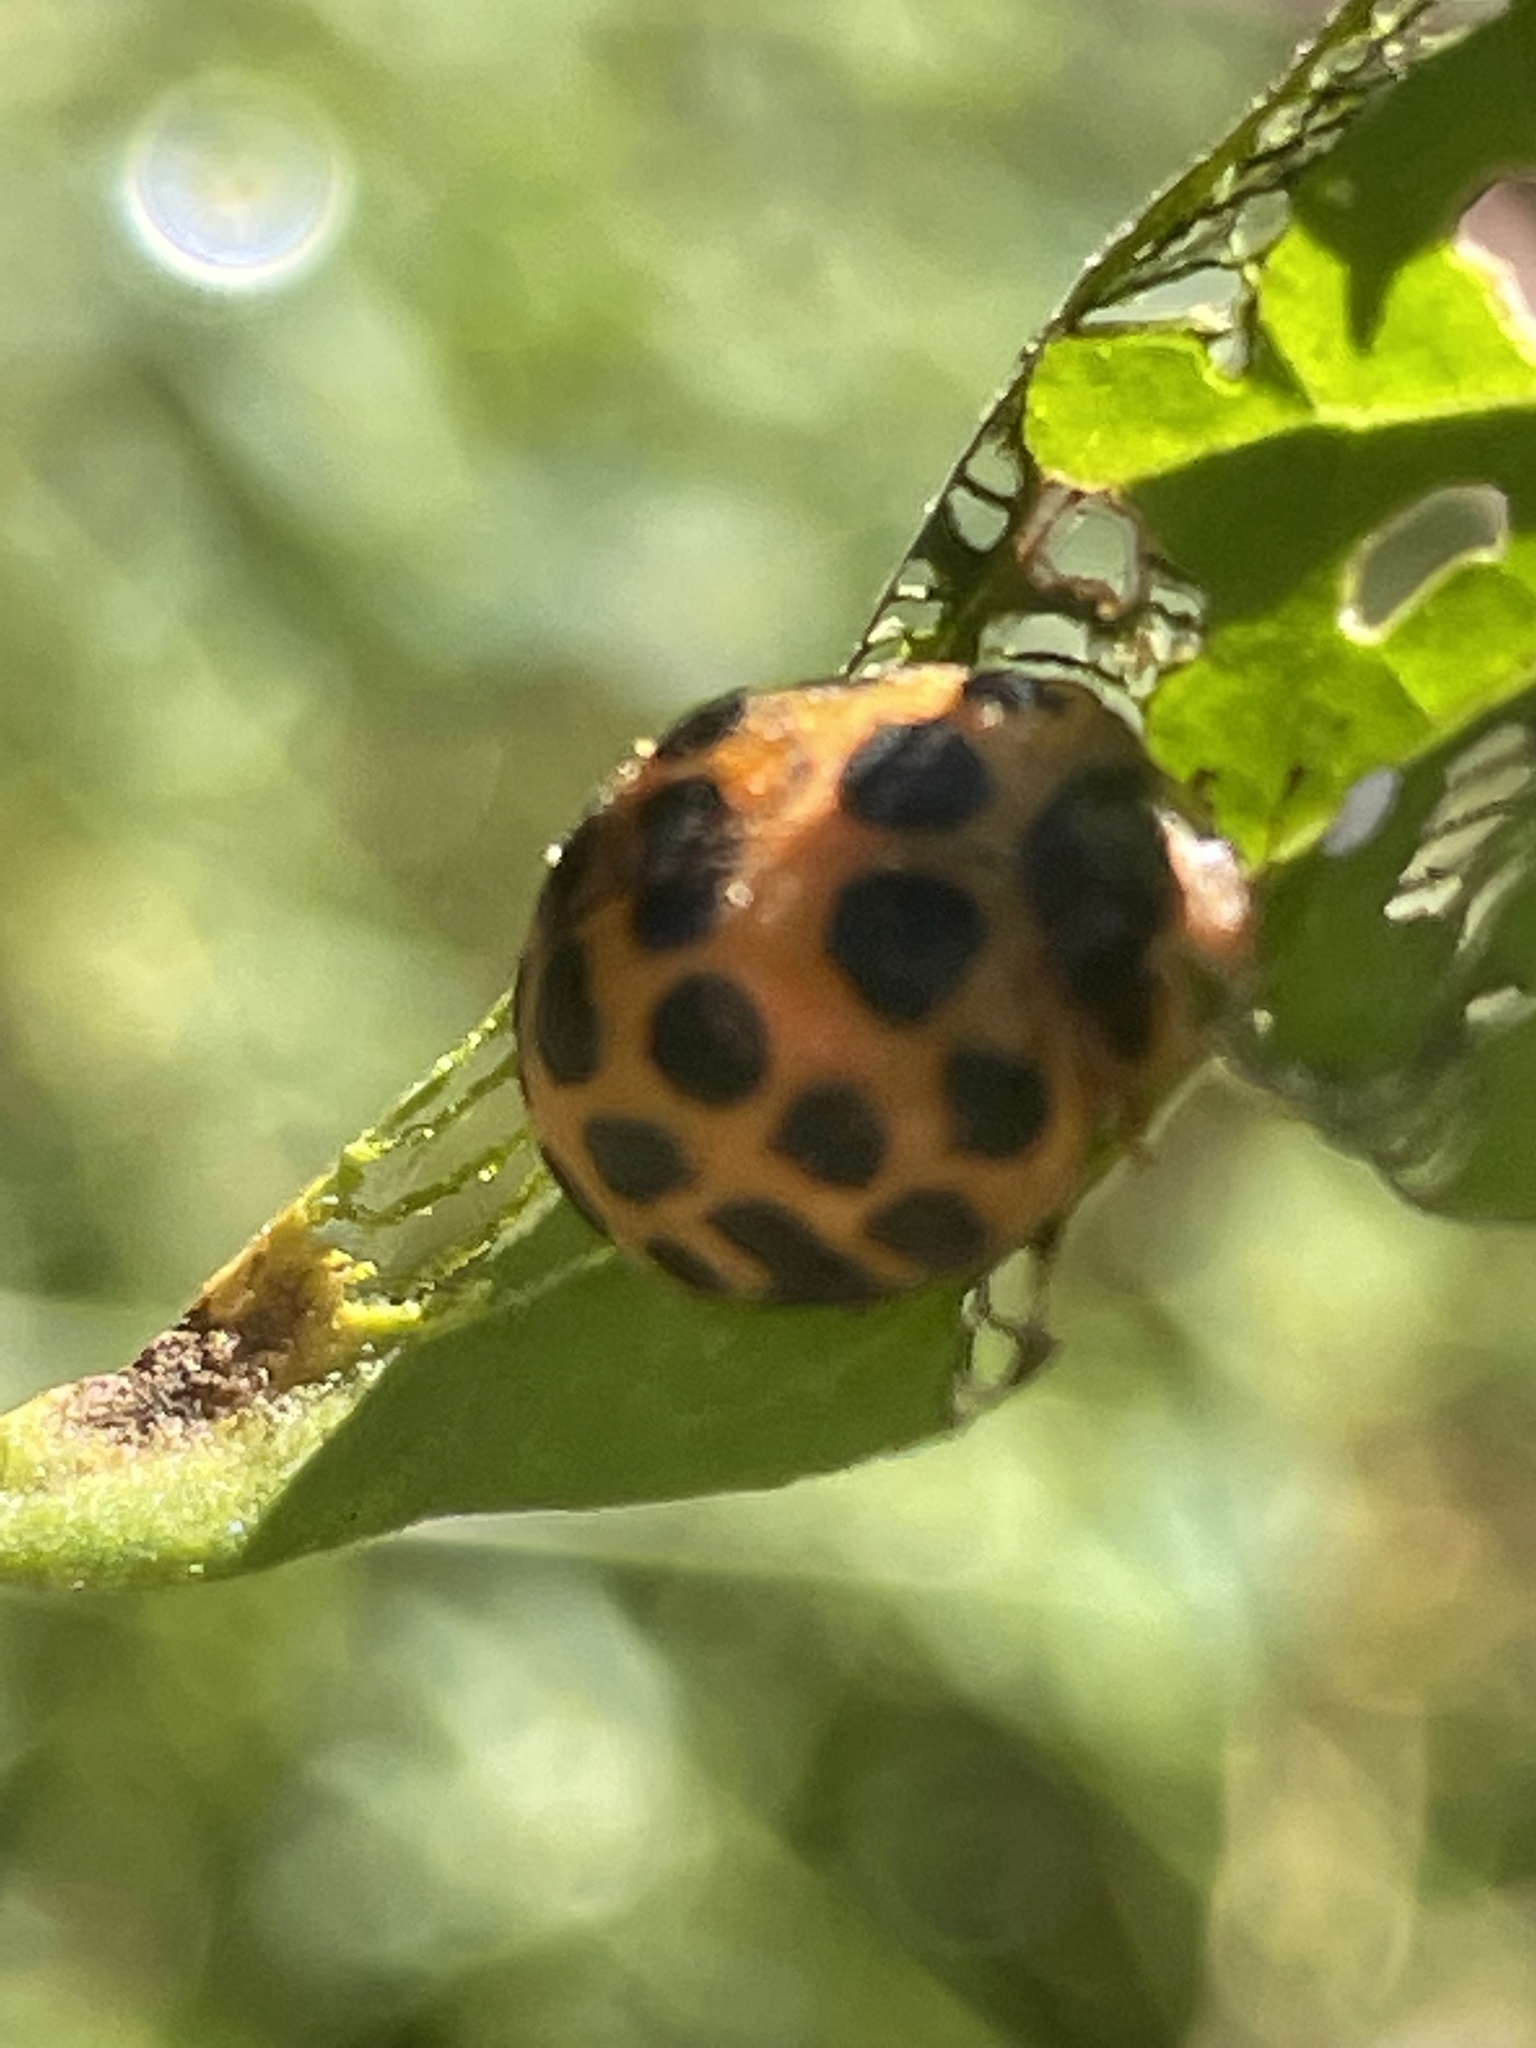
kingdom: Animalia
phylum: Arthropoda
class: Insecta
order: Coleoptera
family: Coccinellidae
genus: Henosepilachna
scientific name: Henosepilachna vigintioctopunctata
